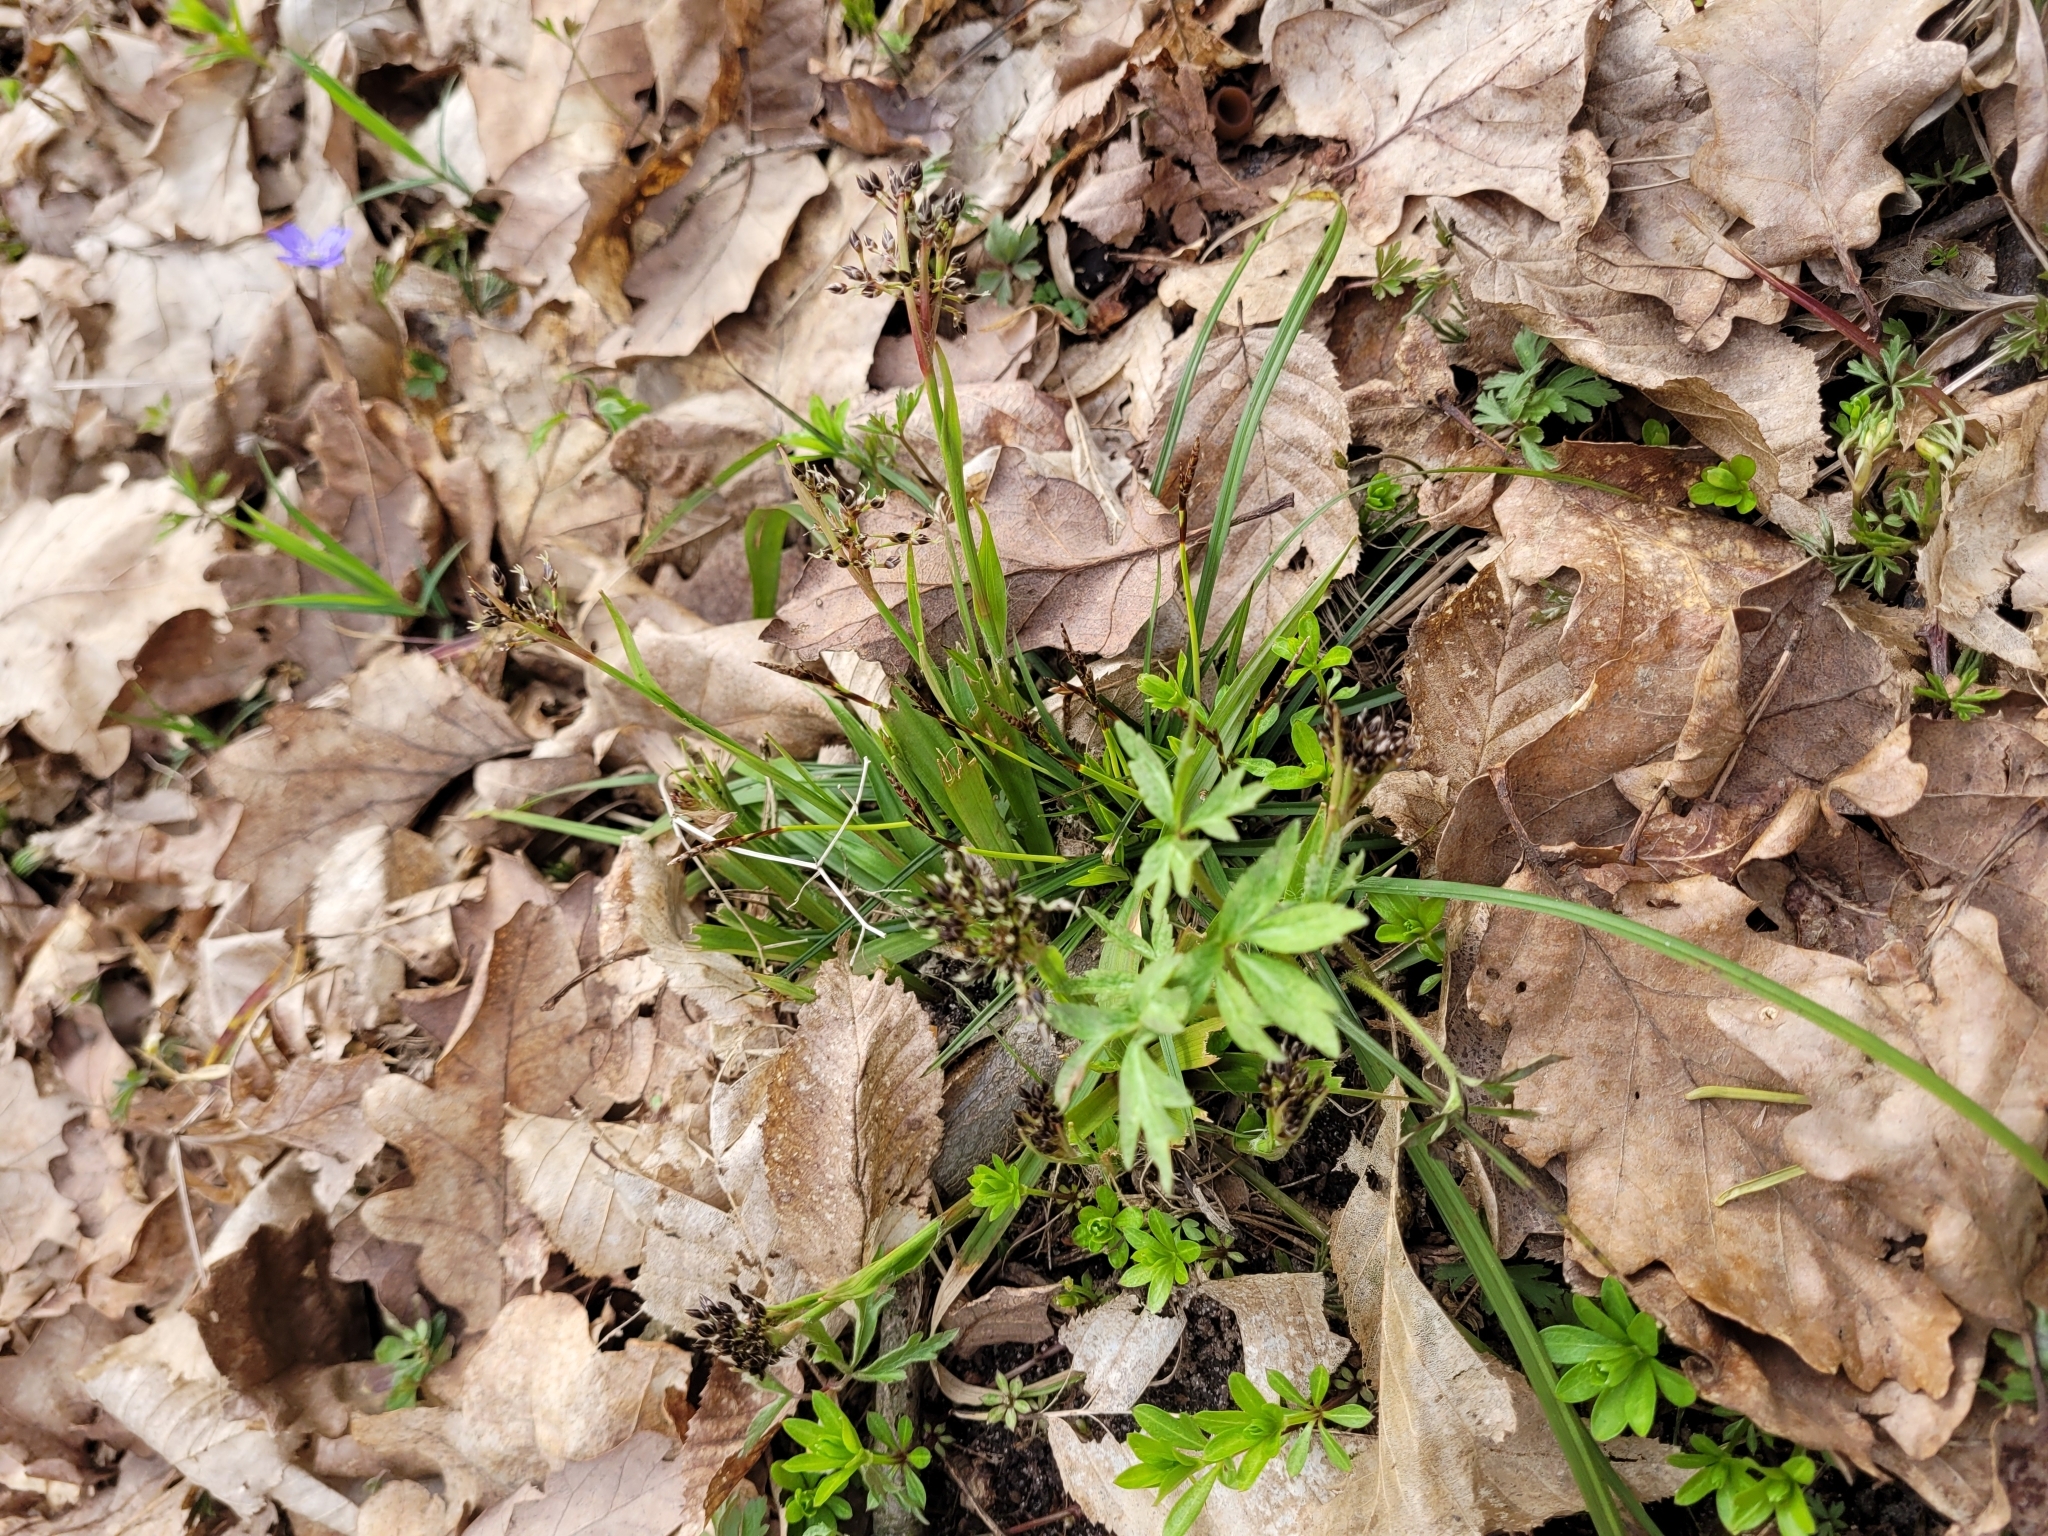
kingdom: Plantae
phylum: Tracheophyta
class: Liliopsida
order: Poales
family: Juncaceae
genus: Luzula
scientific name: Luzula pilosa
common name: Hairy wood-rush
